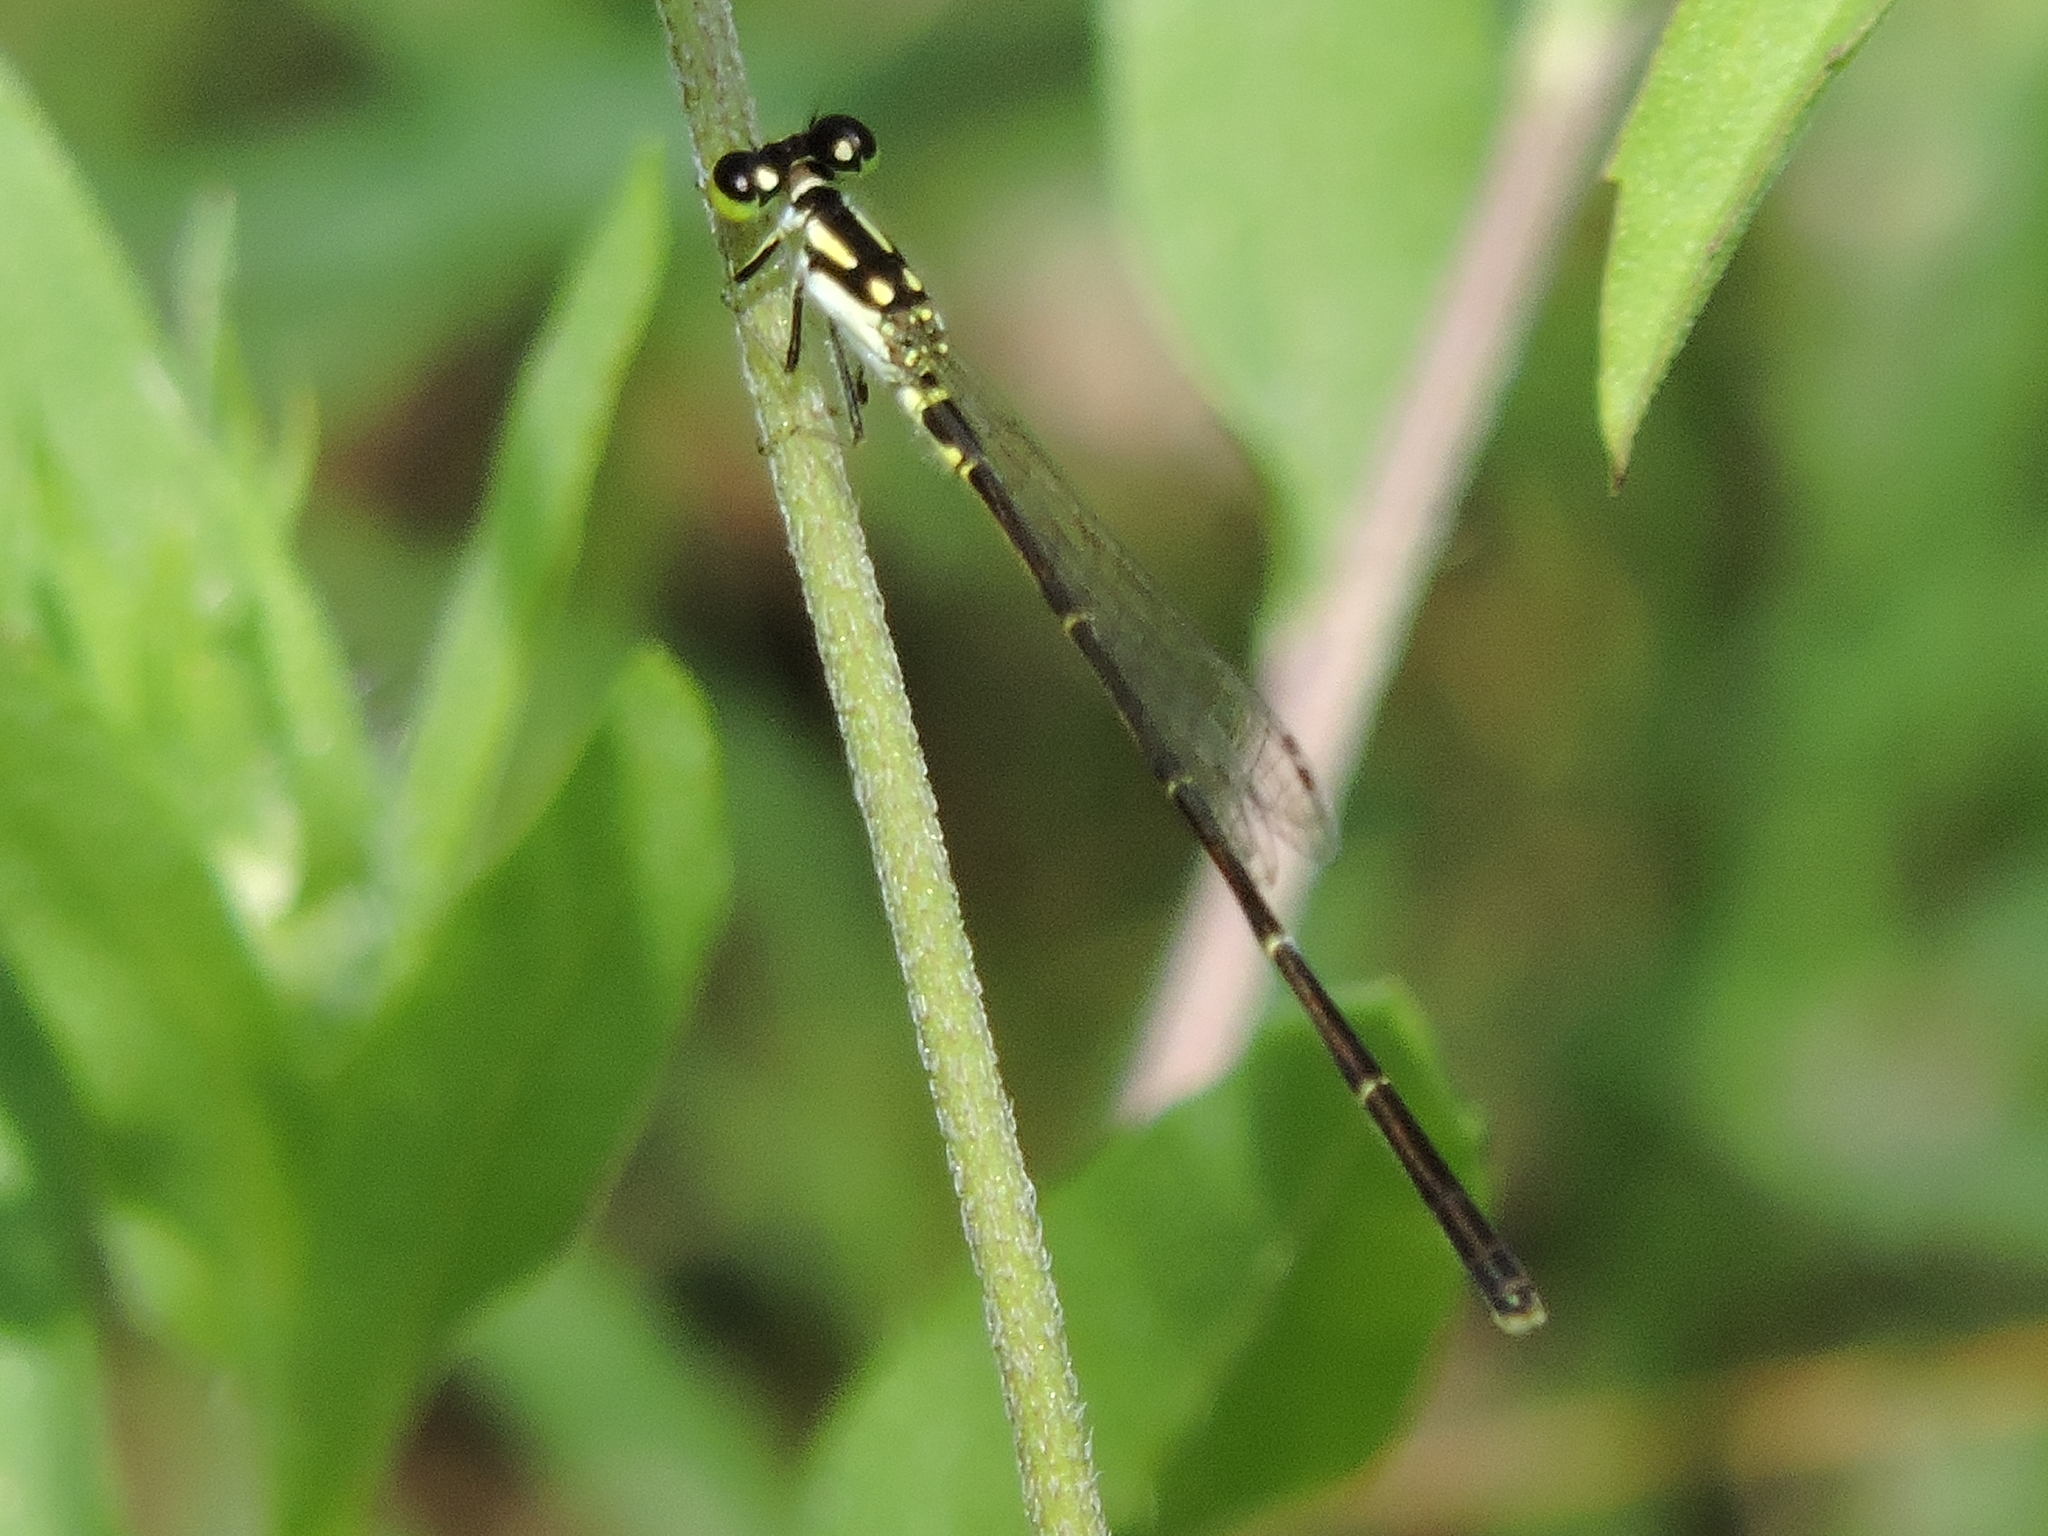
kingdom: Animalia
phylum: Arthropoda
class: Insecta
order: Odonata
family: Coenagrionidae
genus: Ischnura
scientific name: Ischnura posita
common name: Fragile forktail
